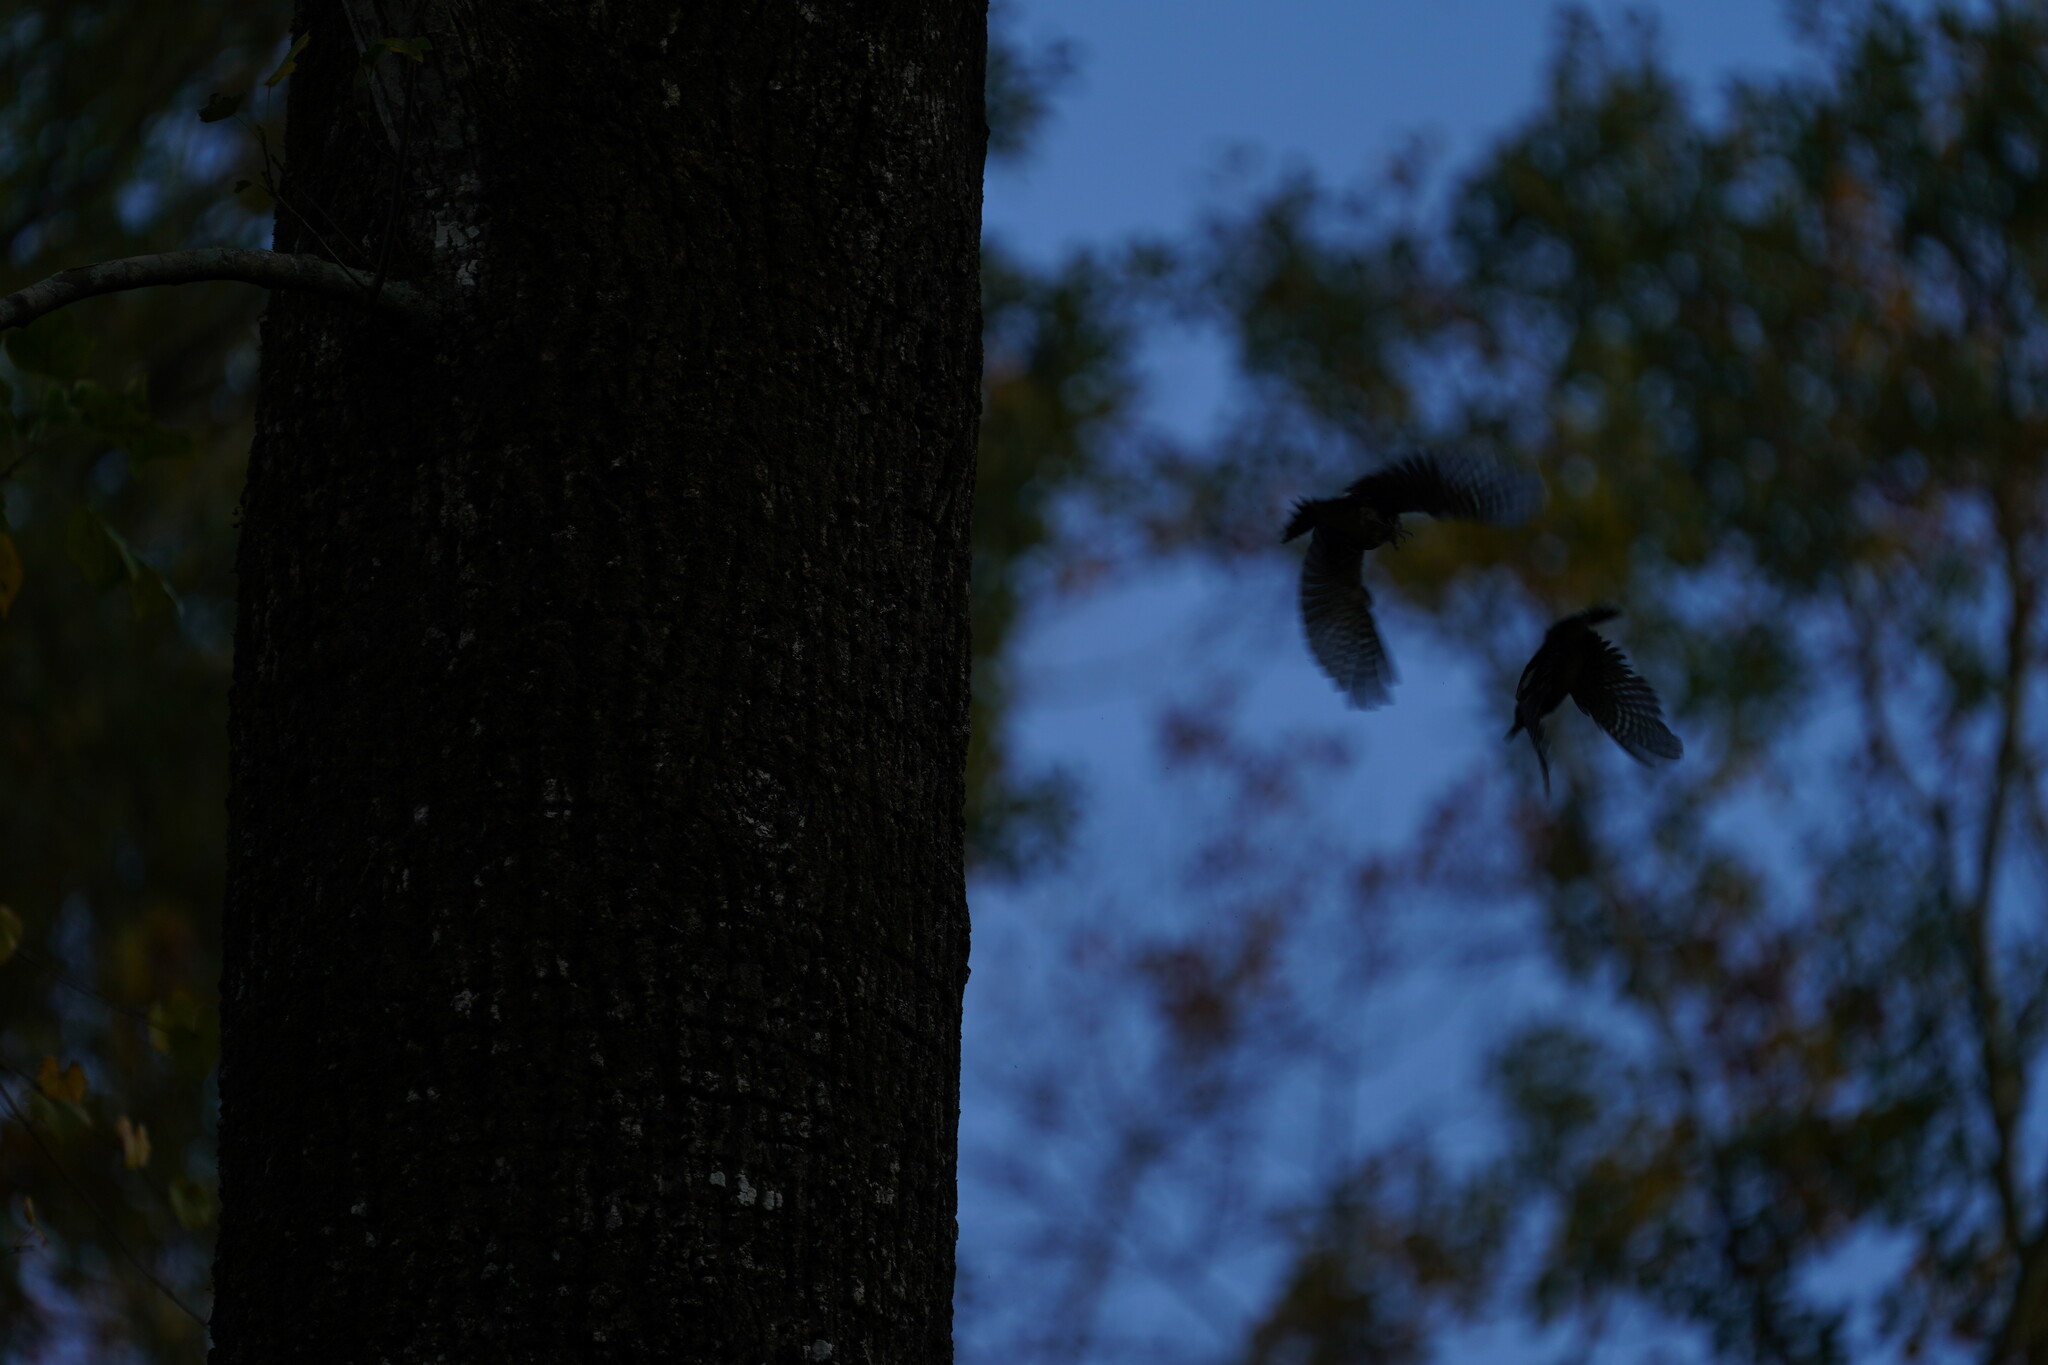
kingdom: Animalia
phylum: Chordata
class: Aves
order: Piciformes
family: Picidae
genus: Sphyrapicus
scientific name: Sphyrapicus varius
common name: Yellow-bellied sapsucker
